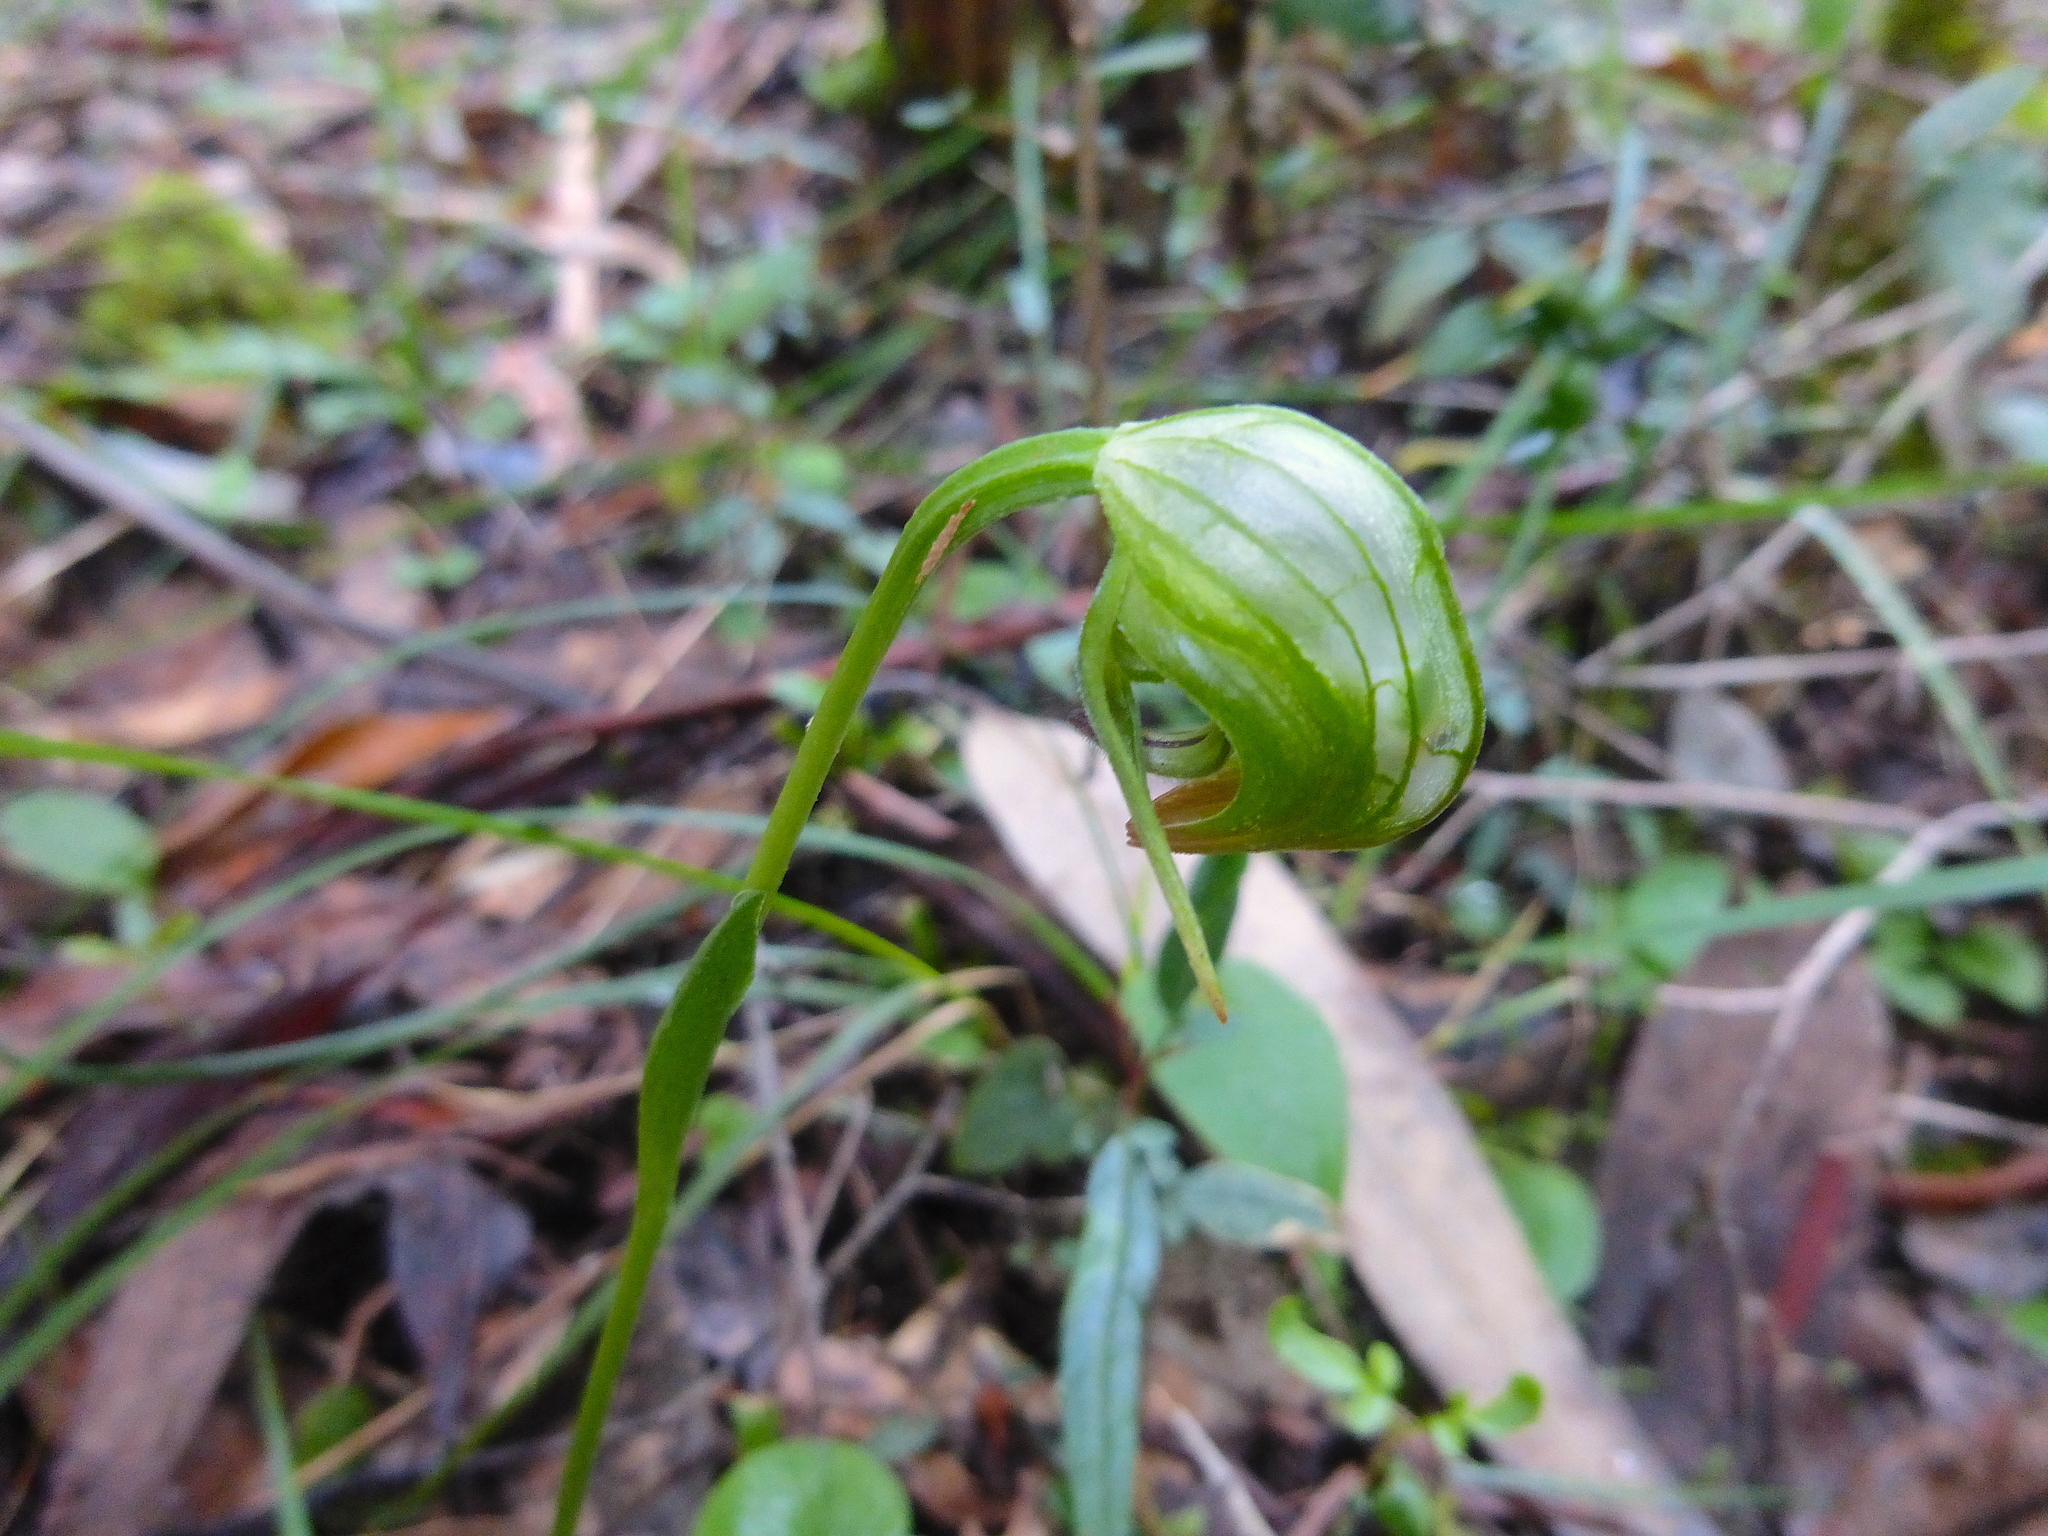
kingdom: Plantae
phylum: Tracheophyta
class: Liliopsida
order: Asparagales
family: Orchidaceae
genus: Pterostylis
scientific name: Pterostylis nutans
